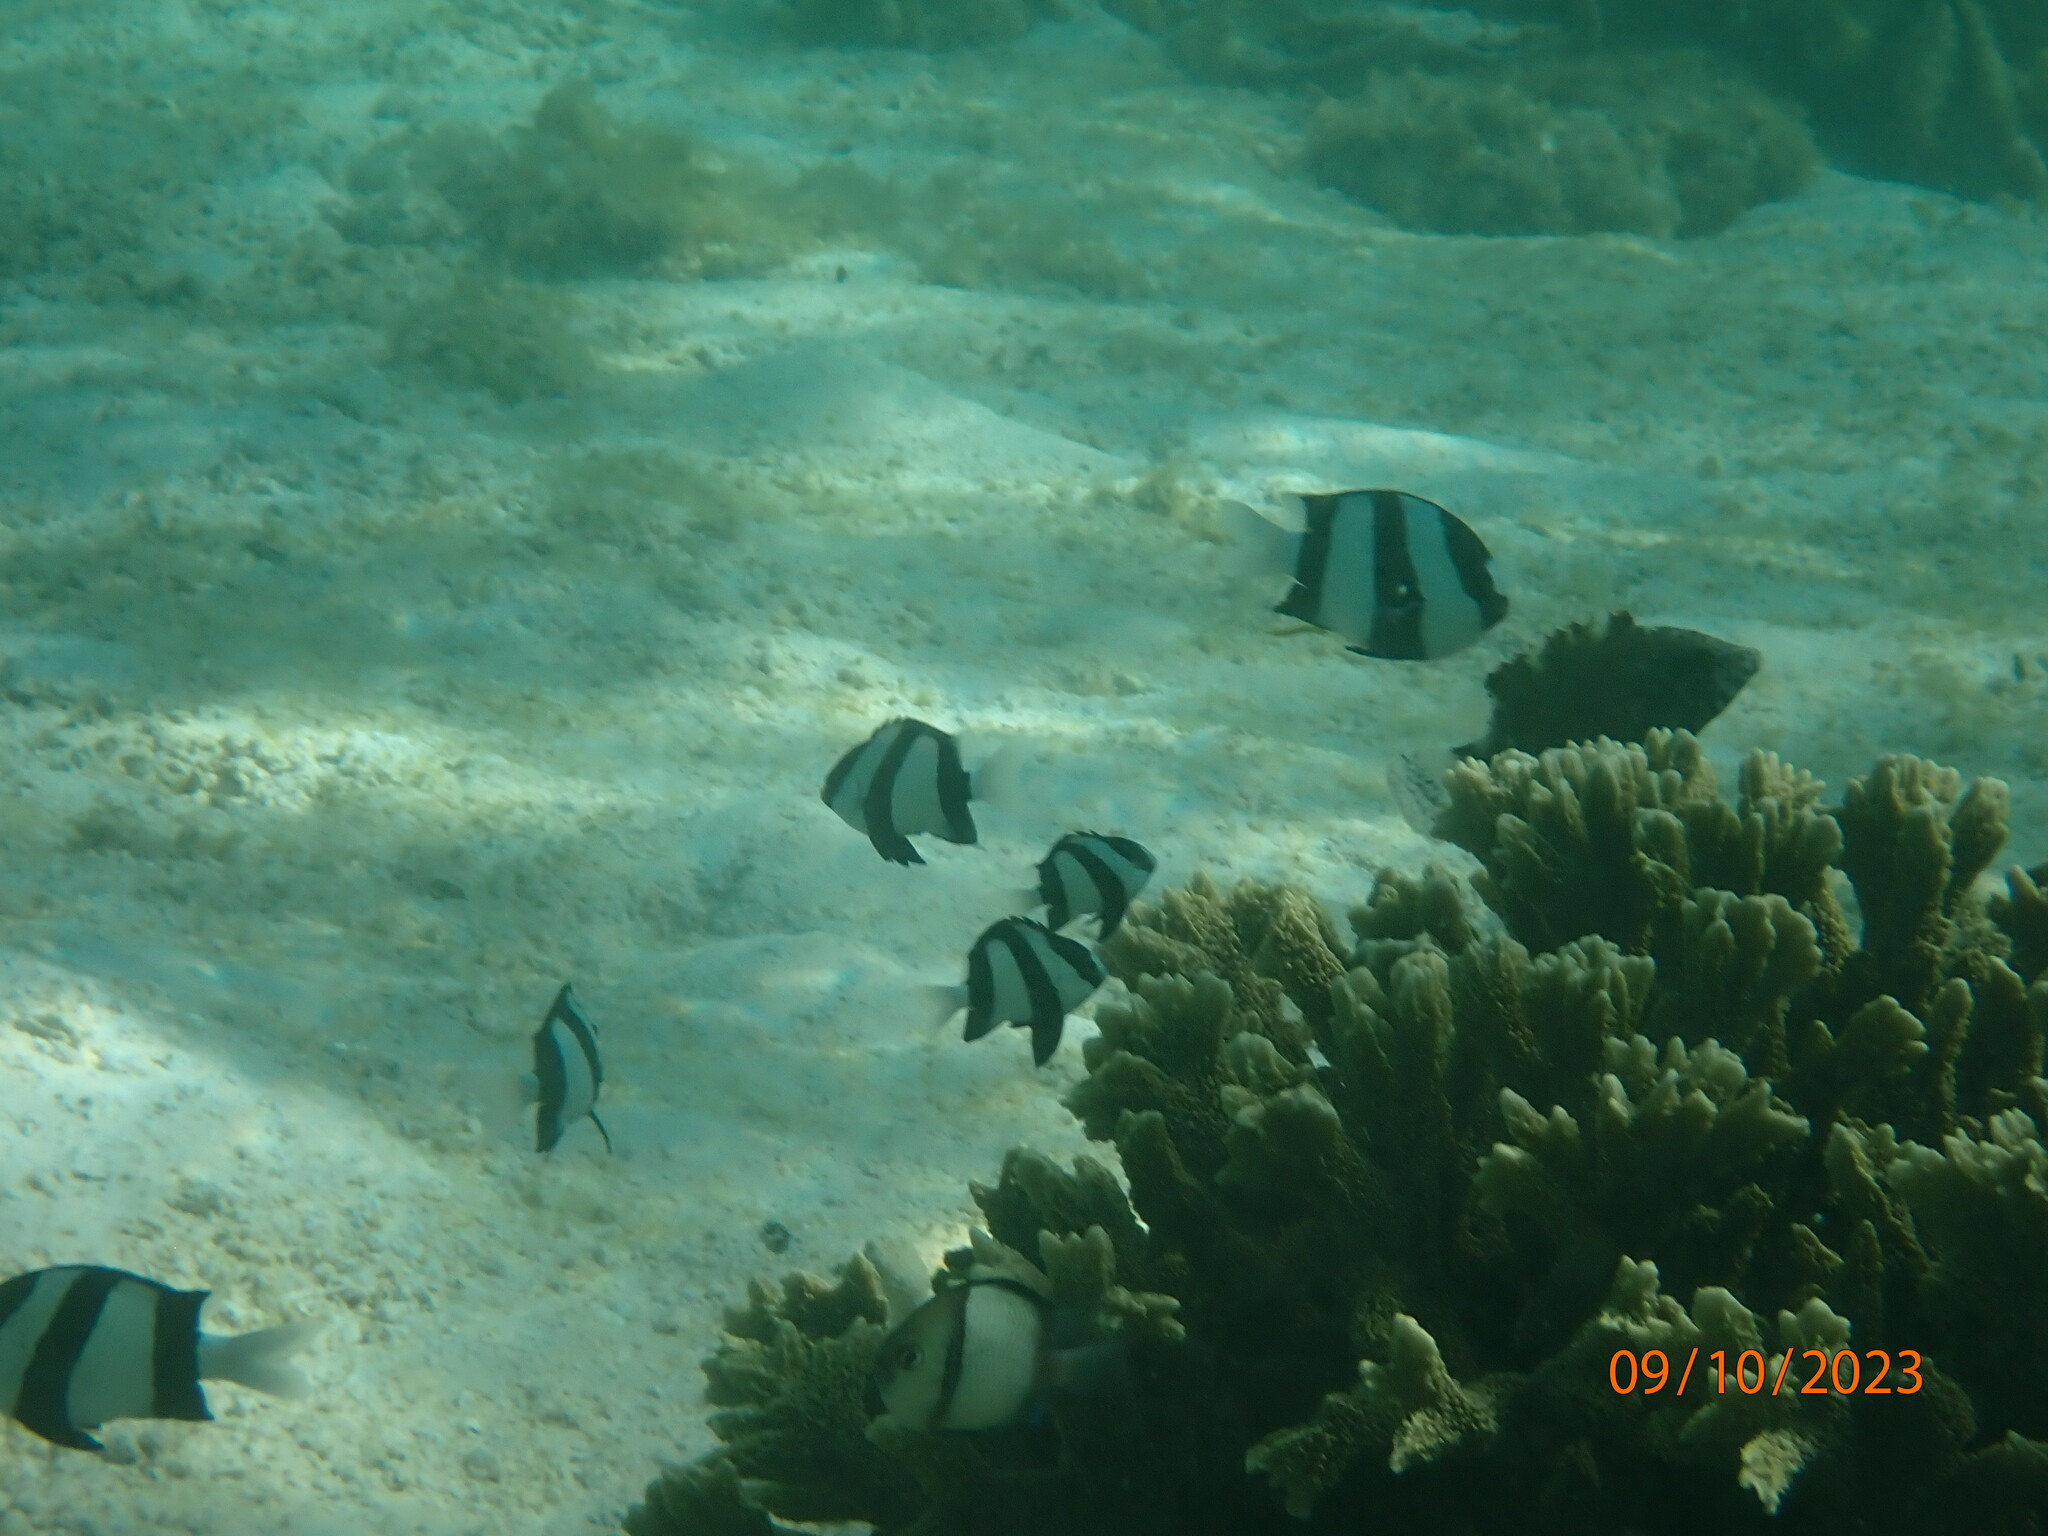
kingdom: Animalia
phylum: Chordata
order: Perciformes
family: Pomacentridae
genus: Dascyllus
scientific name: Dascyllus aruanus
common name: Humbug dascyllus
